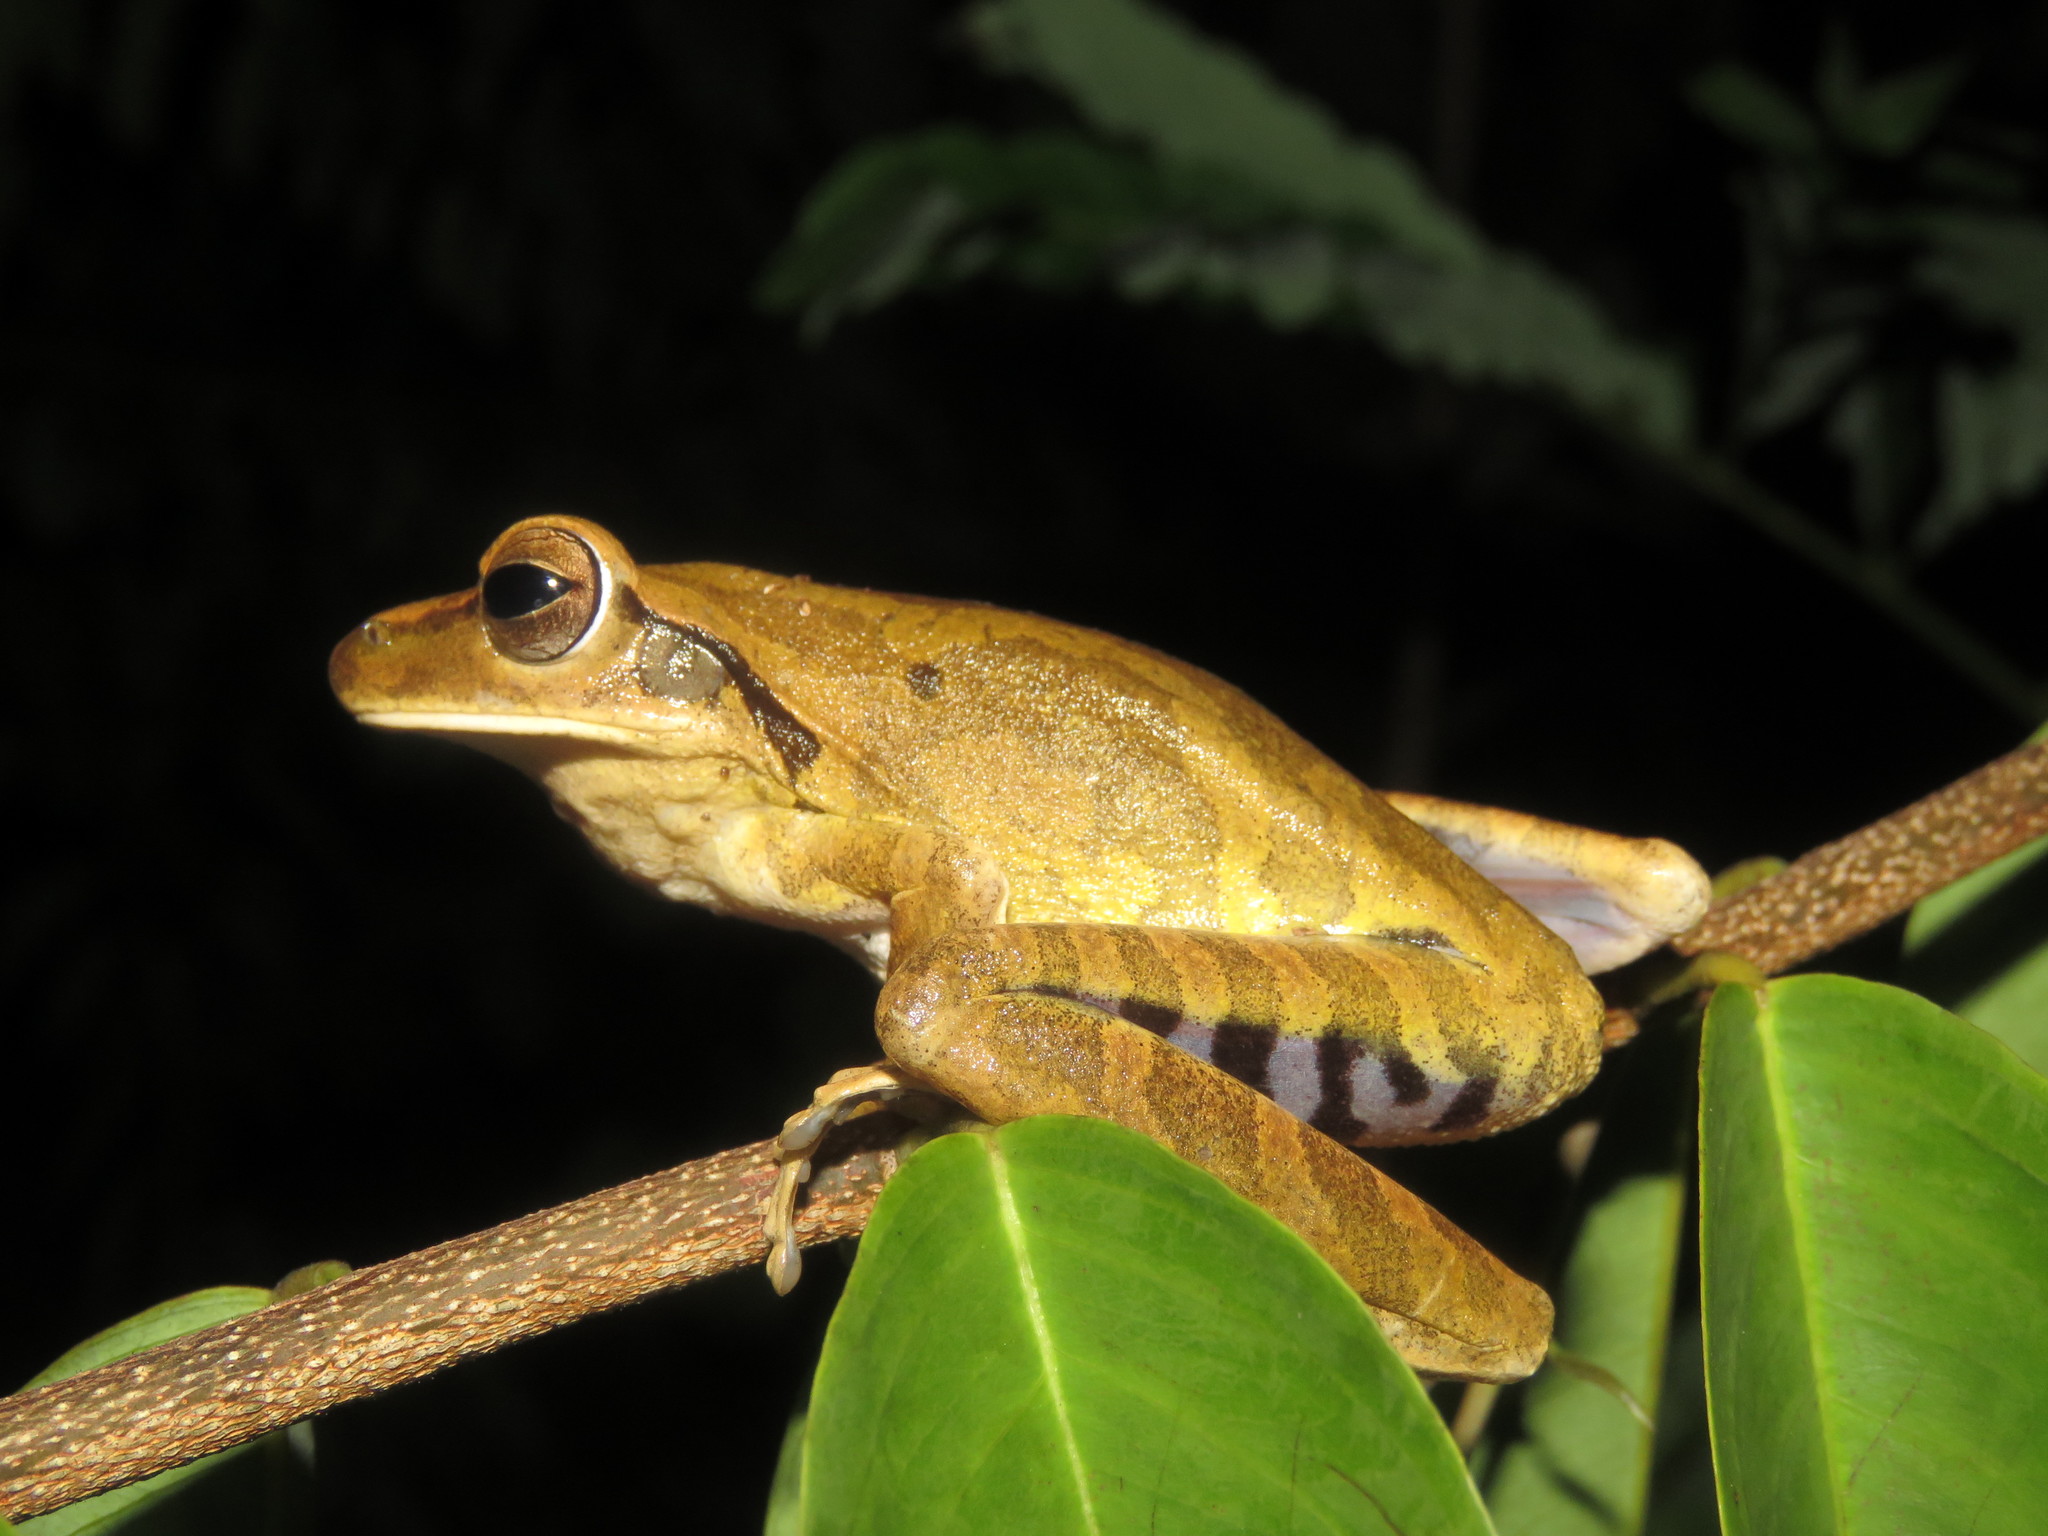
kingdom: Animalia
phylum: Chordata
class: Amphibia
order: Anura
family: Hylidae
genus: Boana
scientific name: Boana raniceps
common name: Chaco treefrog
